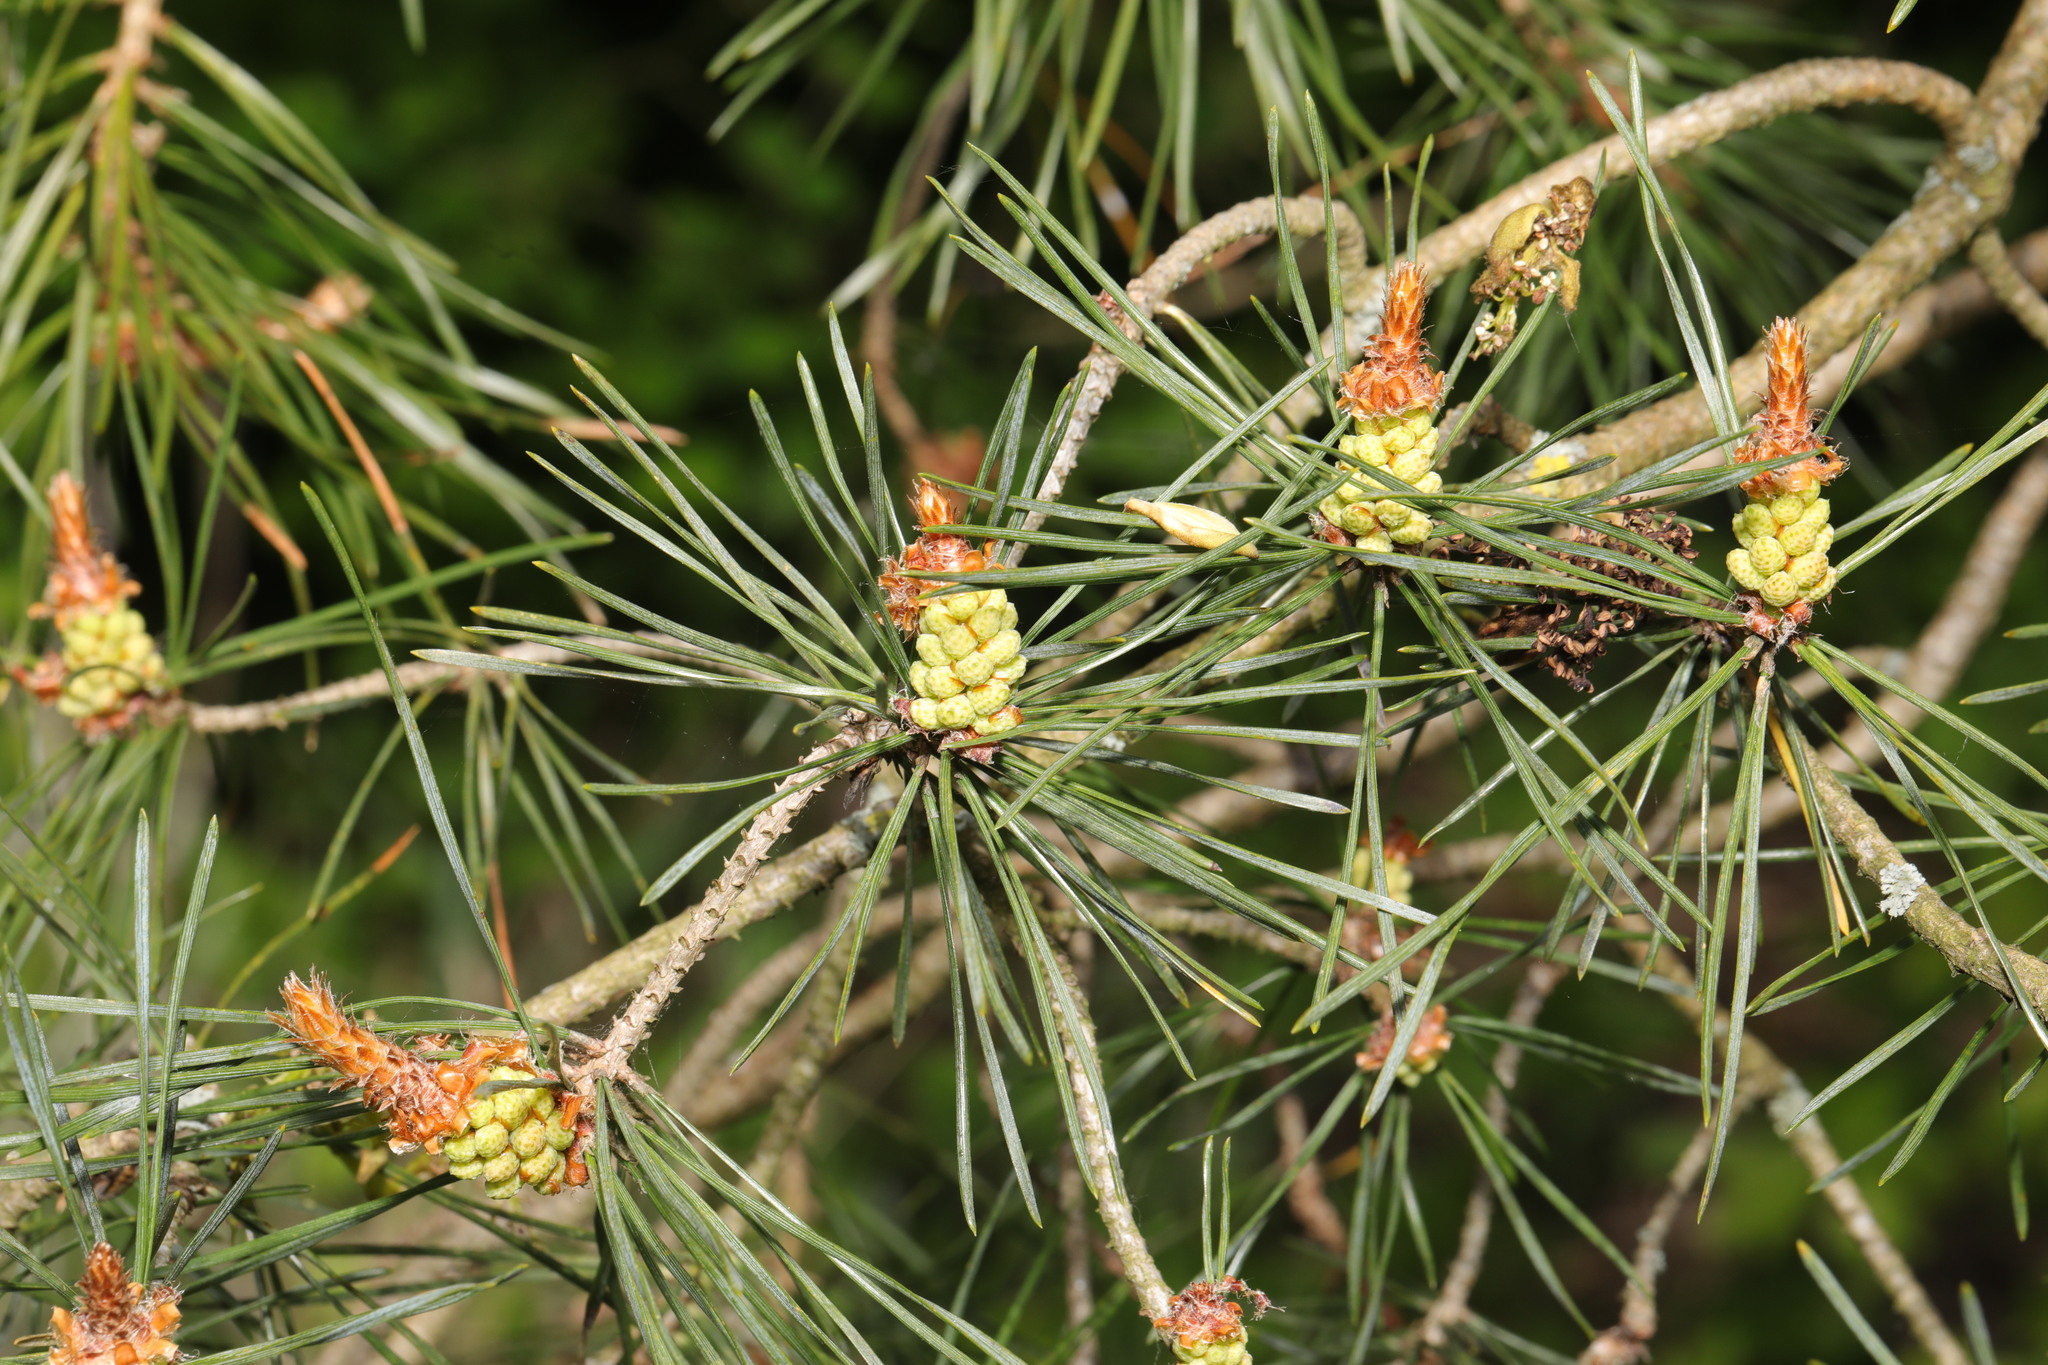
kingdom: Plantae
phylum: Tracheophyta
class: Pinopsida
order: Pinales
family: Pinaceae
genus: Pinus
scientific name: Pinus sylvestris
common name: Scots pine
